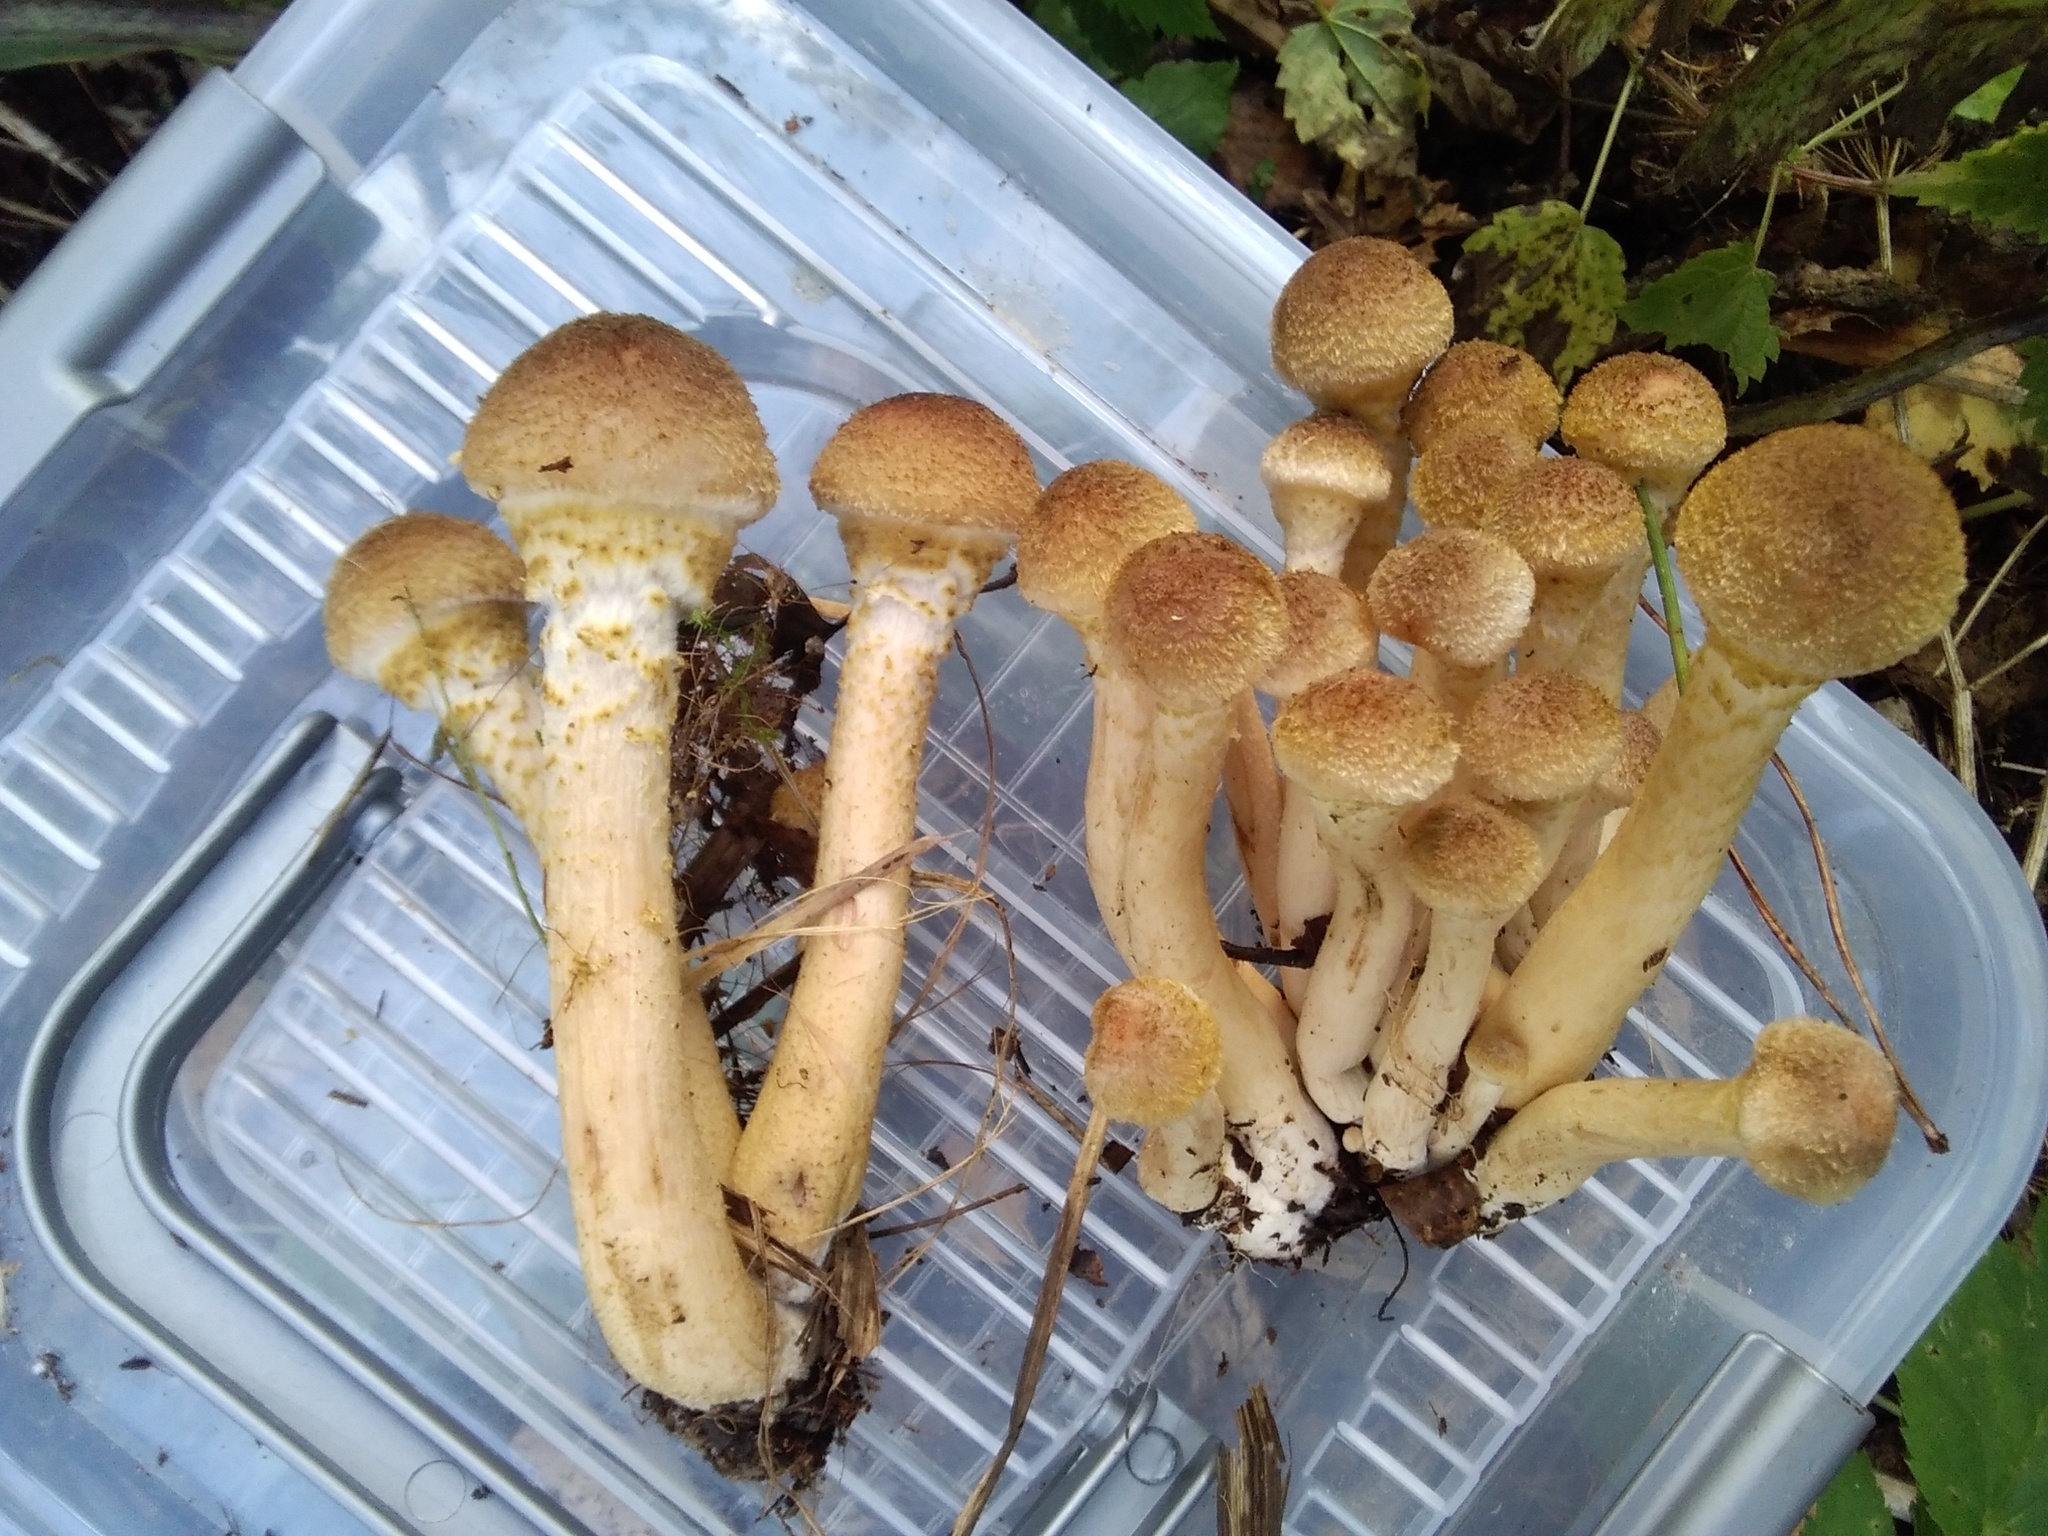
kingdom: Fungi
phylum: Basidiomycota
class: Agaricomycetes
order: Agaricales
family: Physalacriaceae
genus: Armillaria
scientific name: Armillaria mellea
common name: Honey fungus
